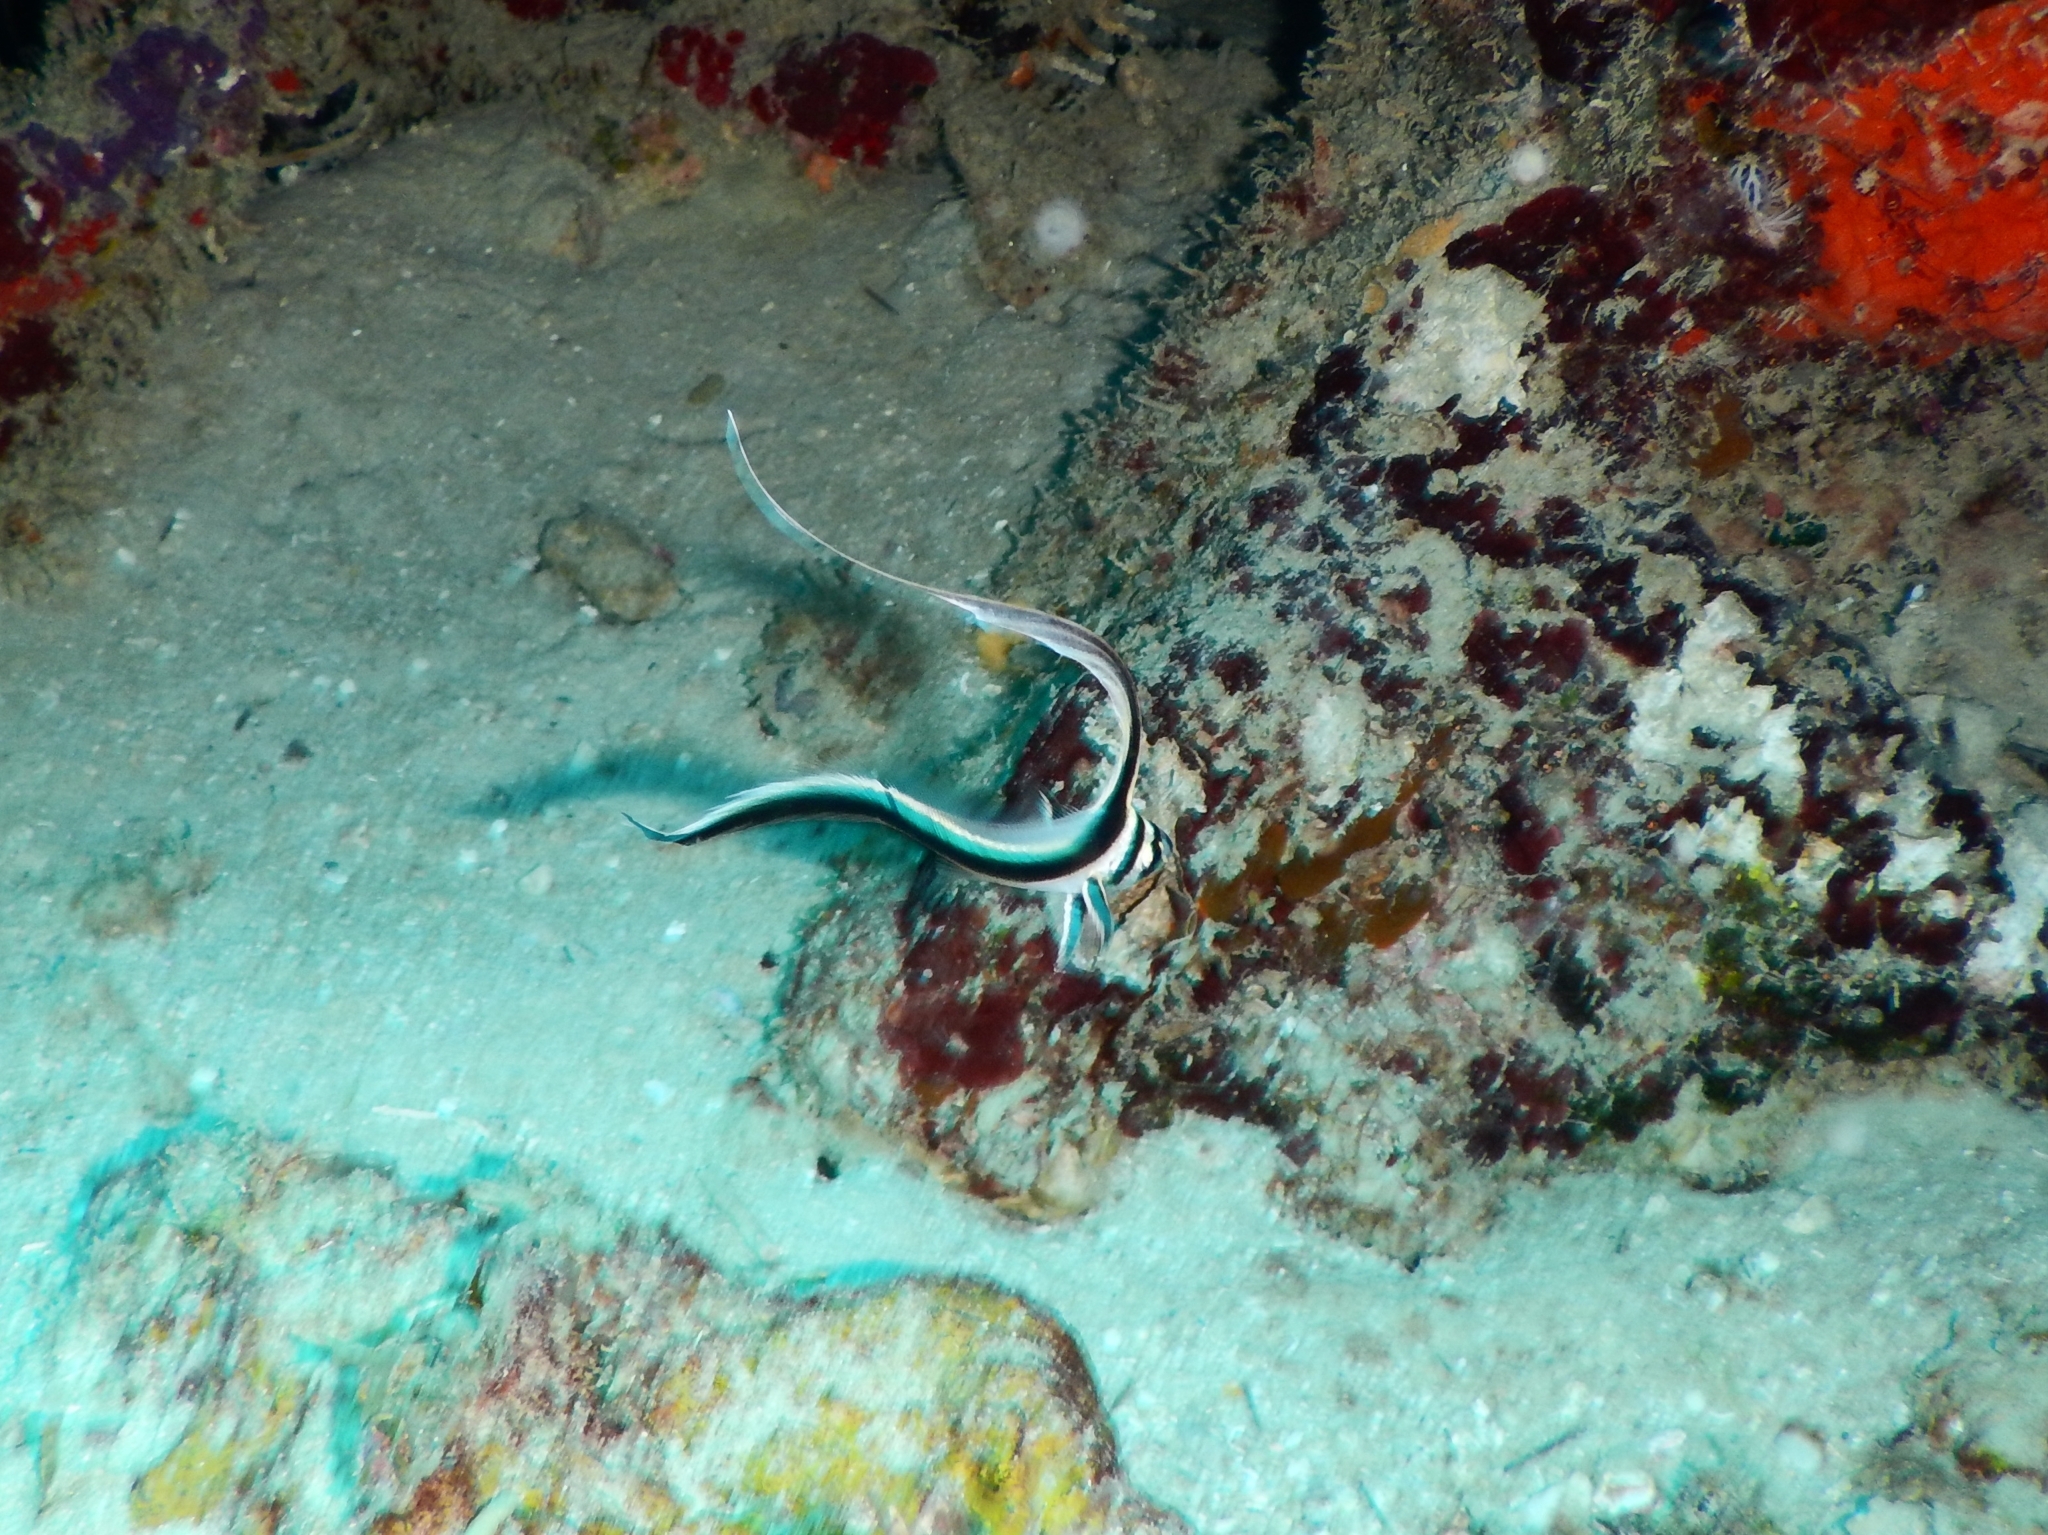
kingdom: Animalia
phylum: Chordata
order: Perciformes
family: Sciaenidae
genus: Equetus
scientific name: Equetus punctatus
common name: Spotted drum
